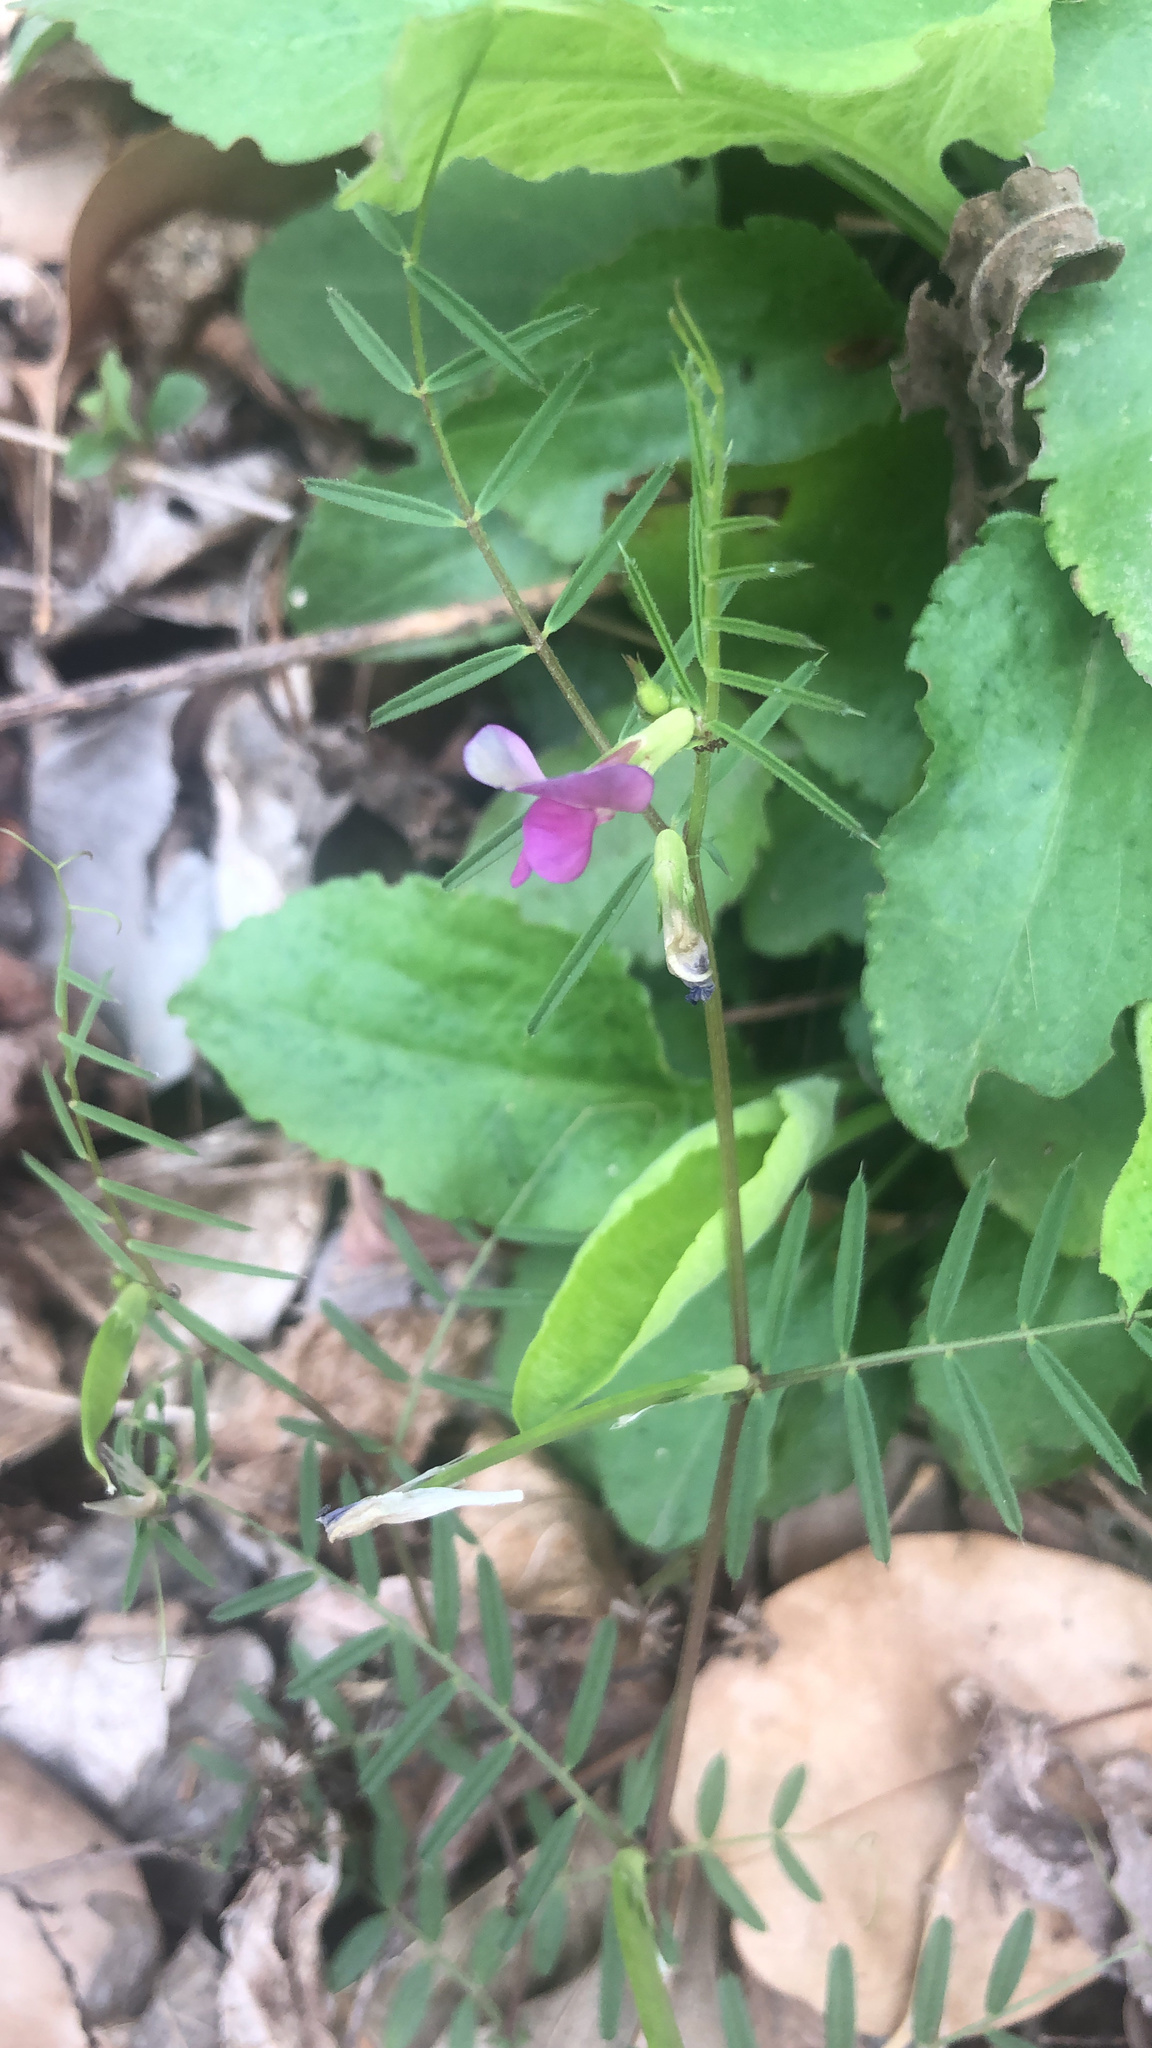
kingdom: Plantae
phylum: Tracheophyta
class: Magnoliopsida
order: Fabales
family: Fabaceae
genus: Vicia
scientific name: Vicia sativa
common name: Garden vetch
